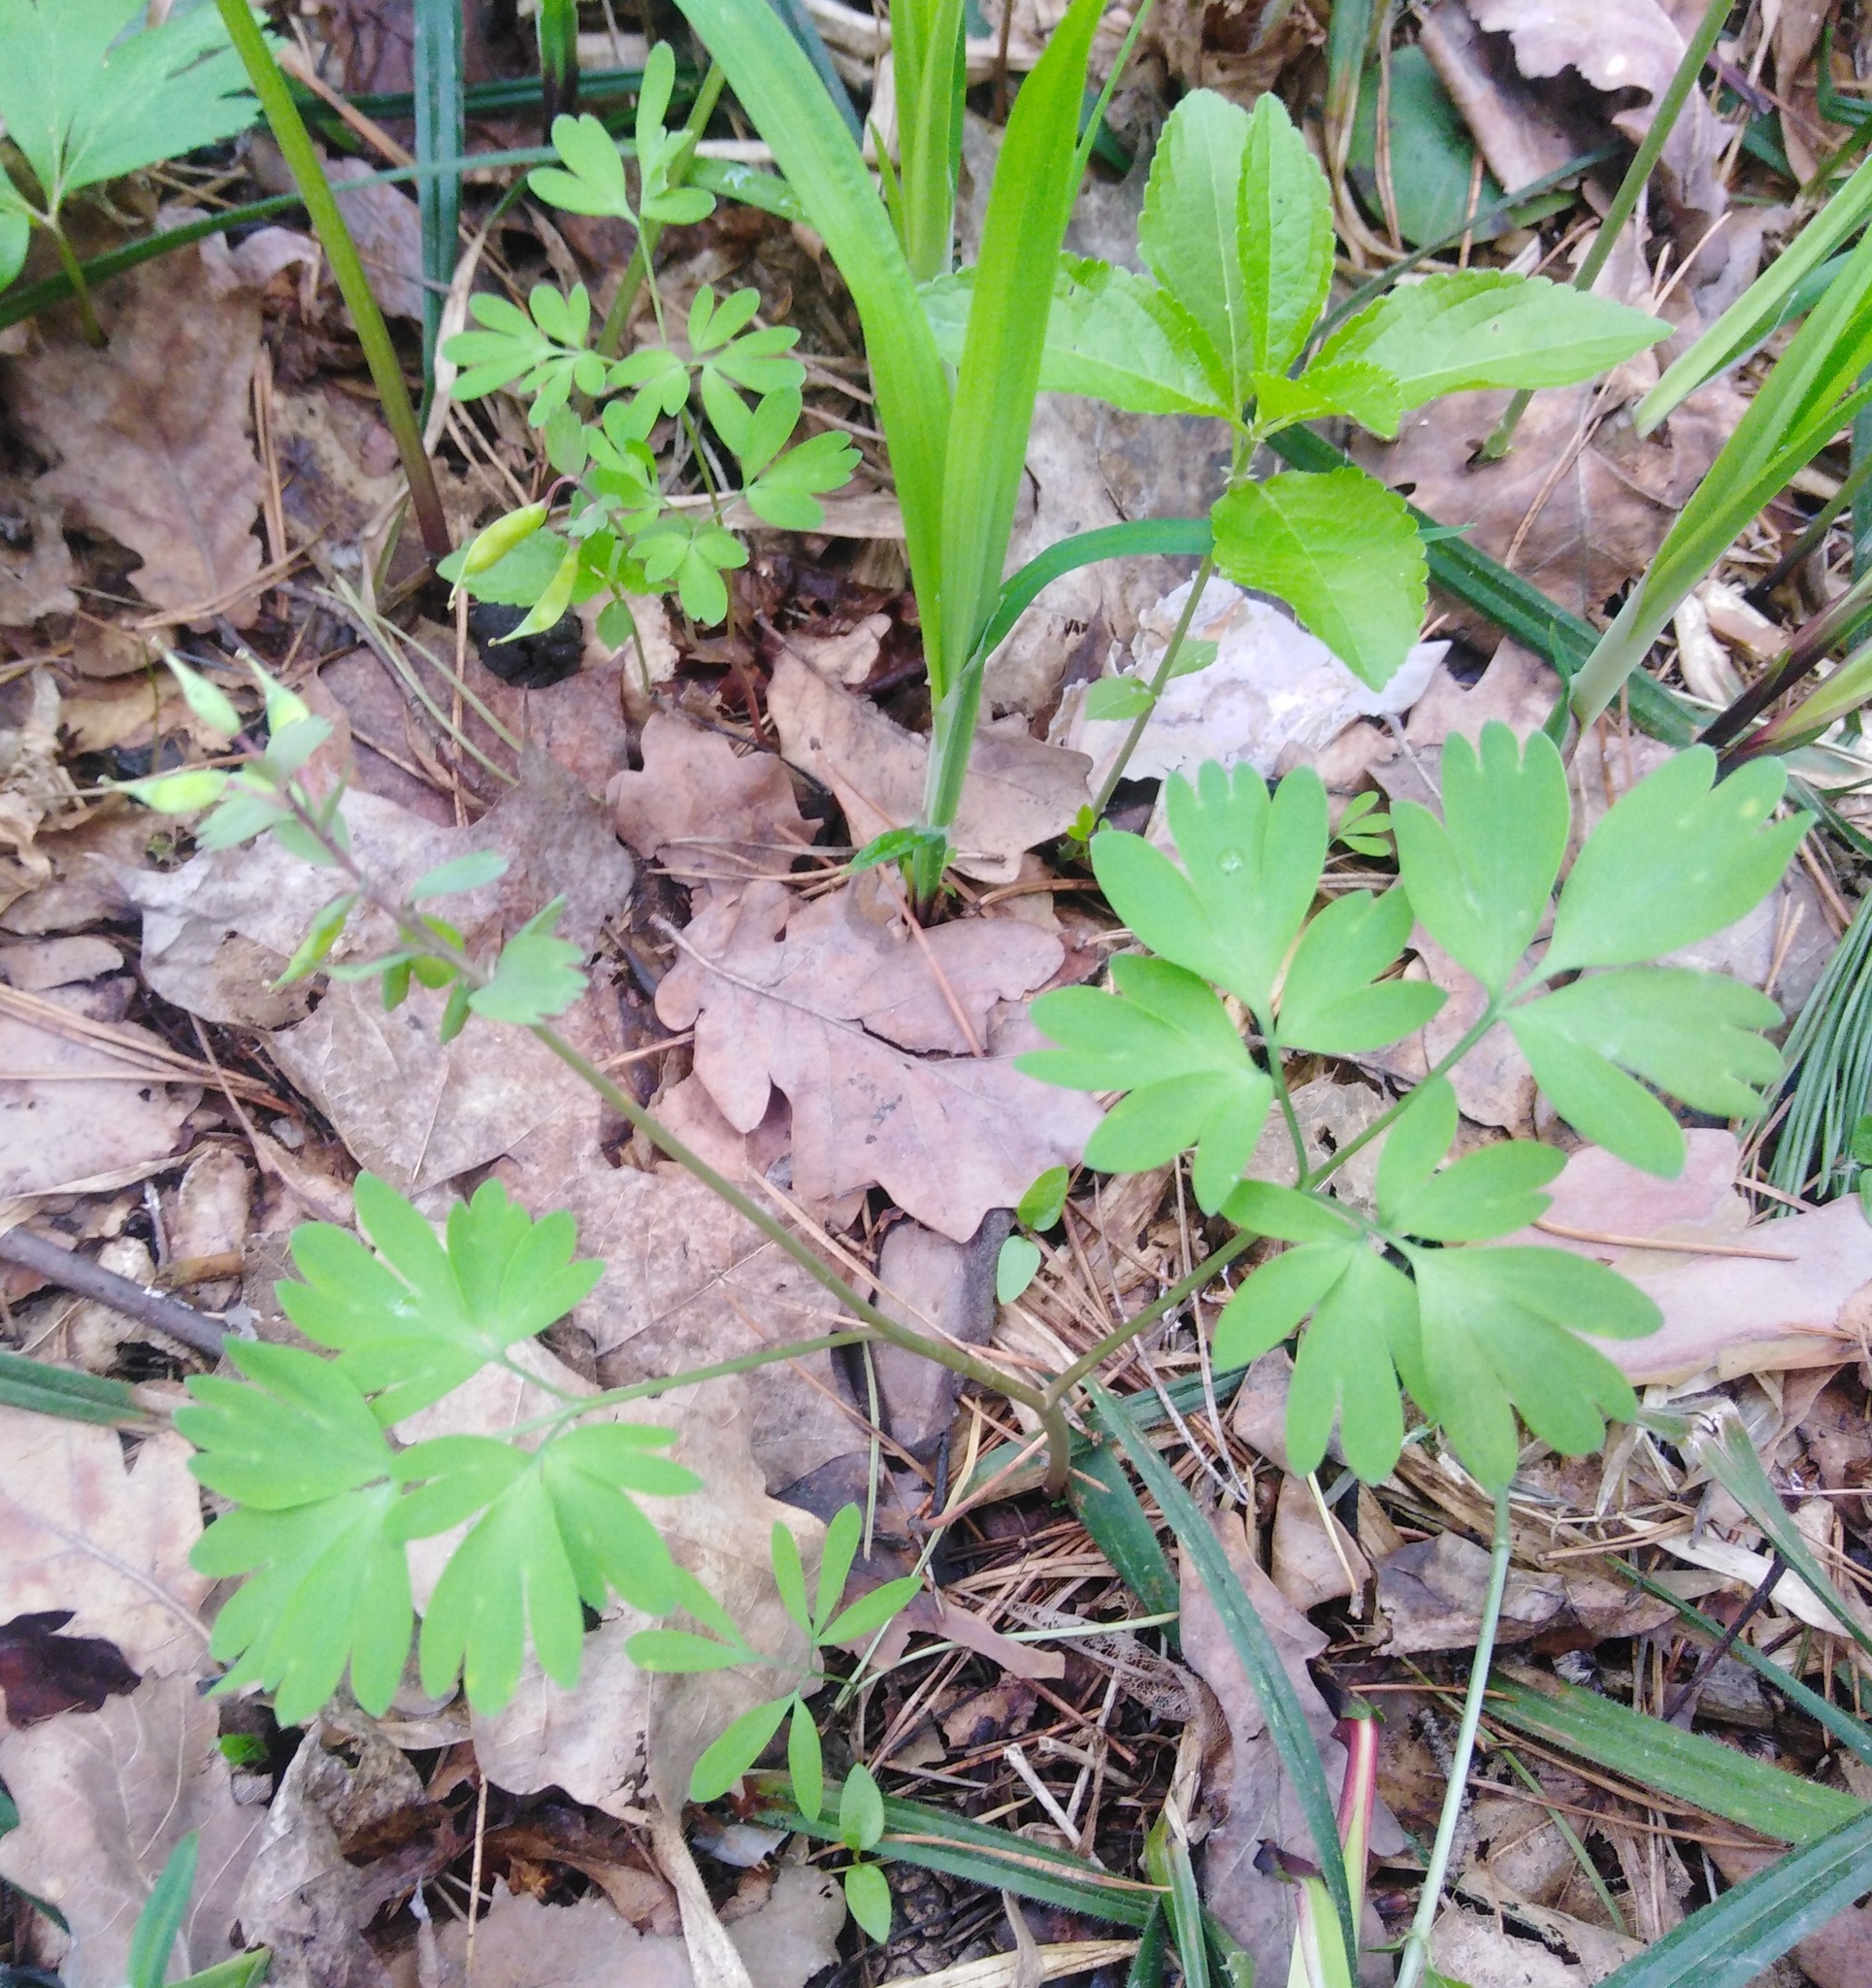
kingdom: Plantae
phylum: Tracheophyta
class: Magnoliopsida
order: Ranunculales
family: Papaveraceae
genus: Corydalis
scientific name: Corydalis solida
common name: Bird-in-a-bush
